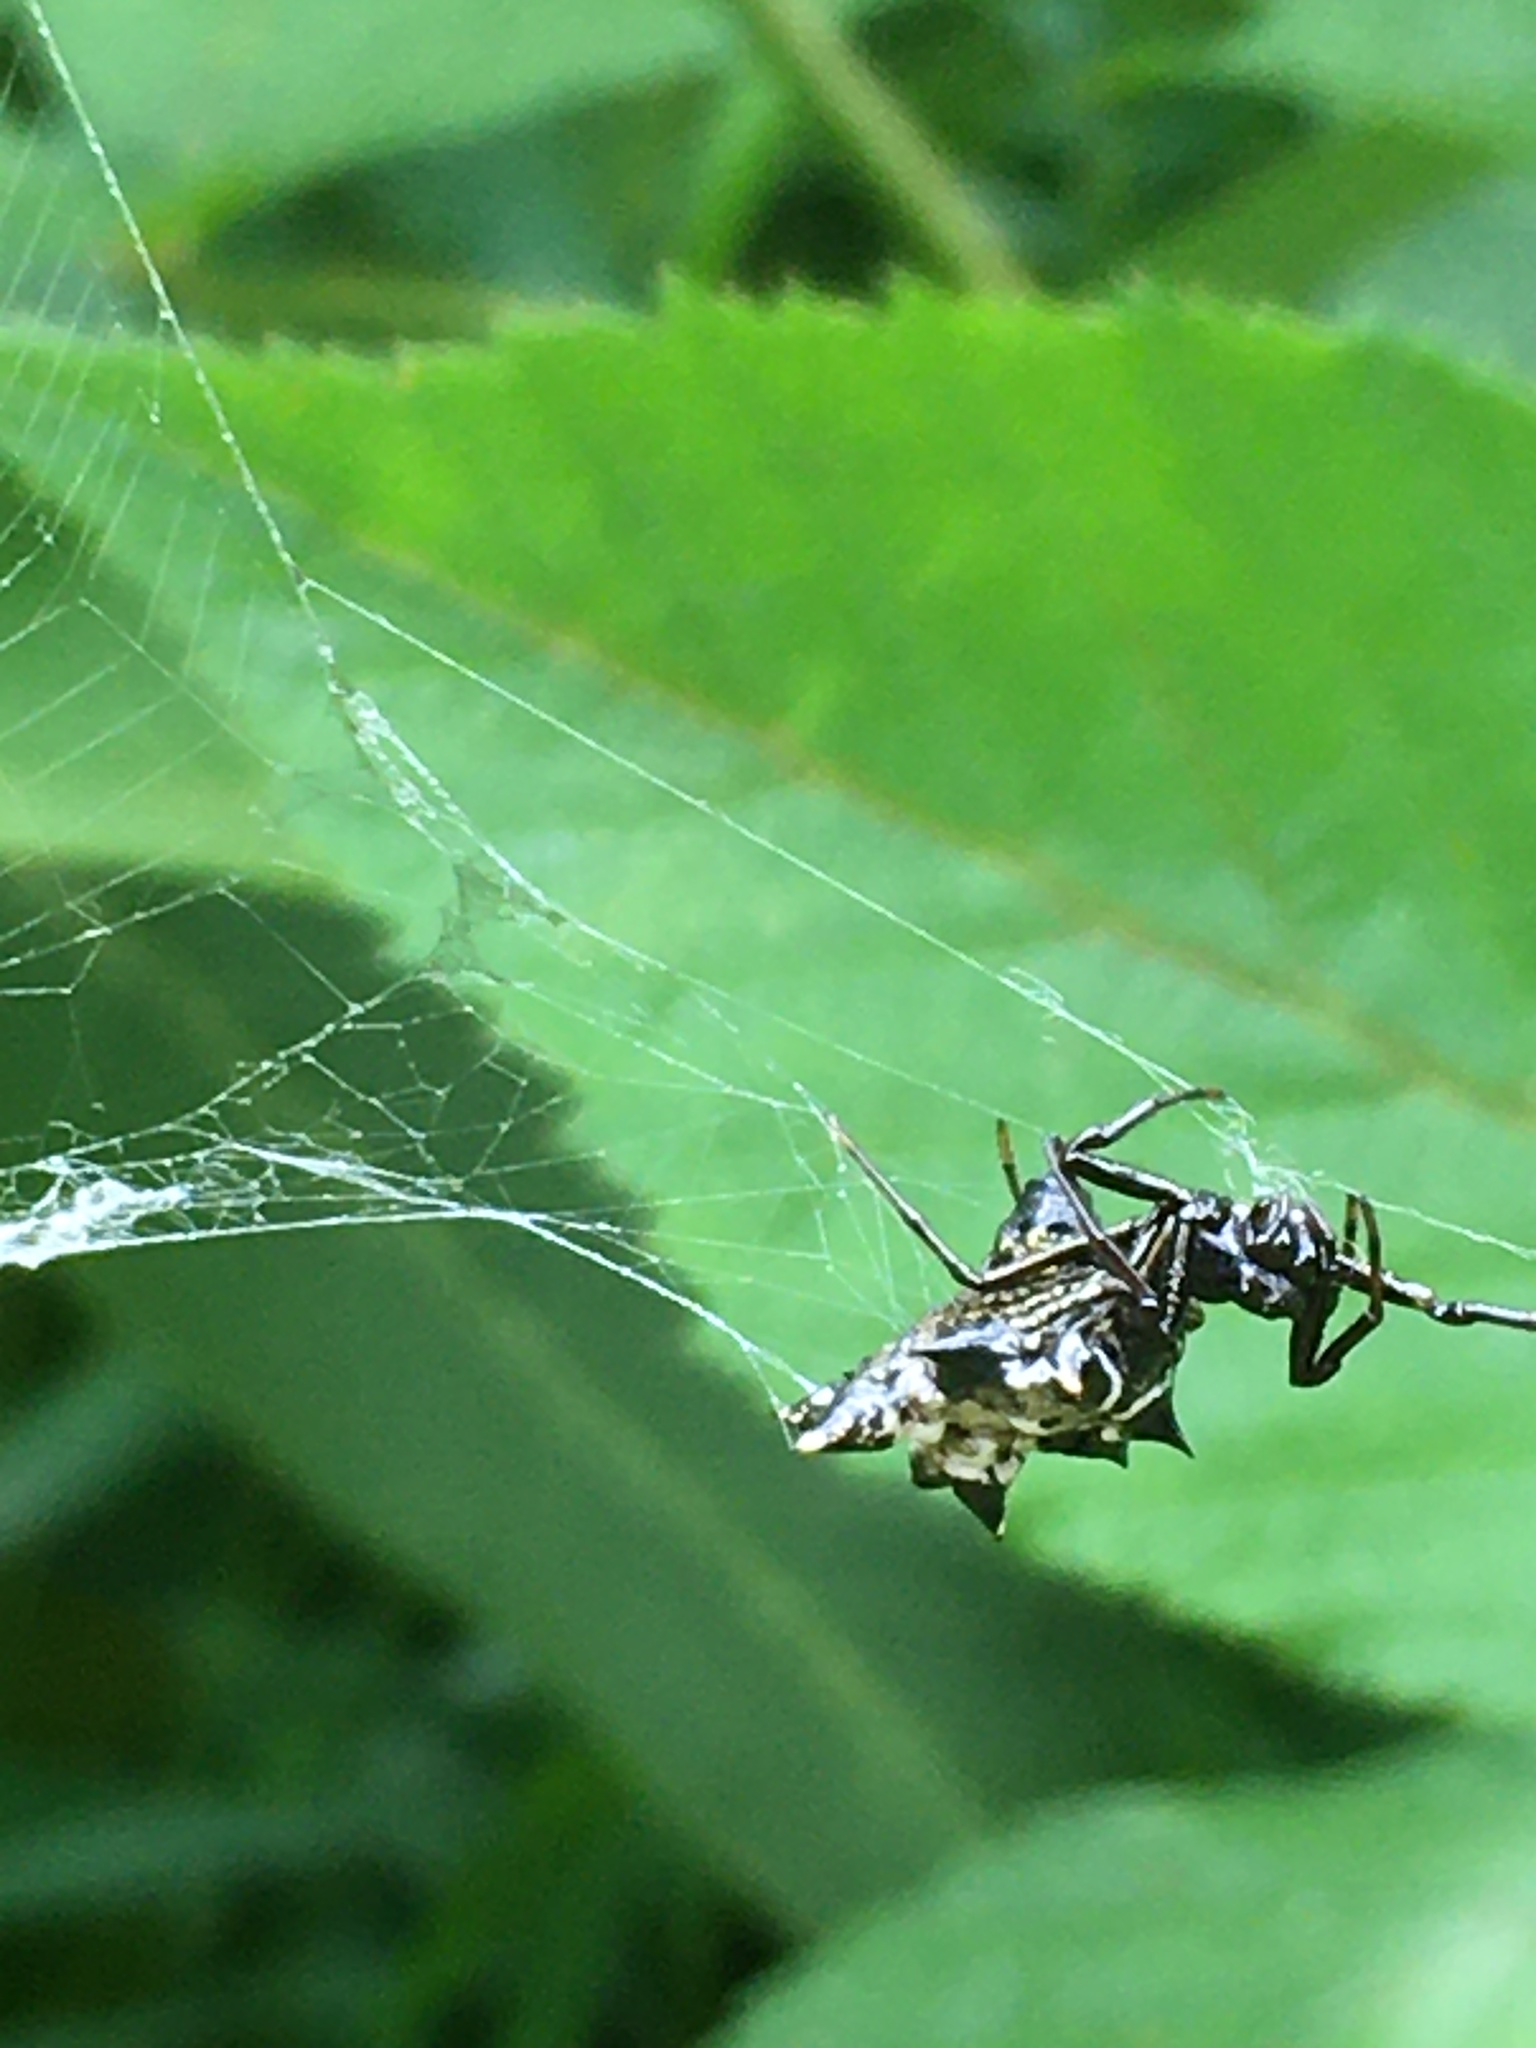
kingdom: Animalia
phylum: Arthropoda
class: Arachnida
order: Araneae
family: Araneidae
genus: Micrathena
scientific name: Micrathena gracilis
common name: Orb weavers
